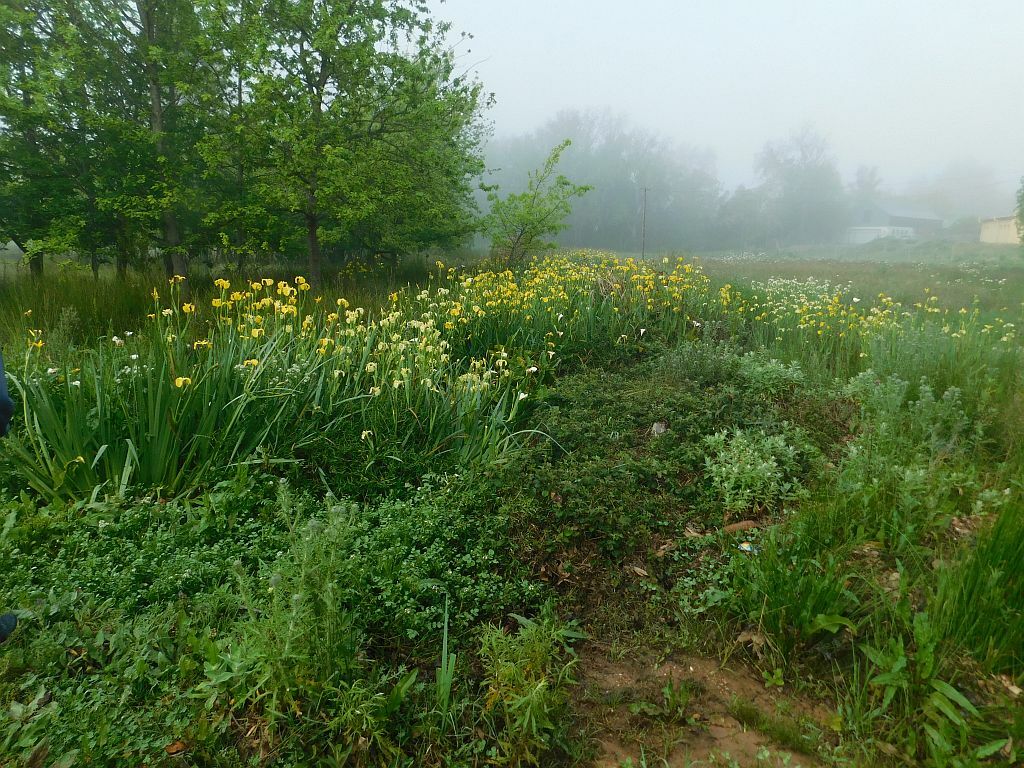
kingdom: Plantae
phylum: Tracheophyta
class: Liliopsida
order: Asparagales
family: Iridaceae
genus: Iris
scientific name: Iris pseudacorus
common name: Yellow flag
